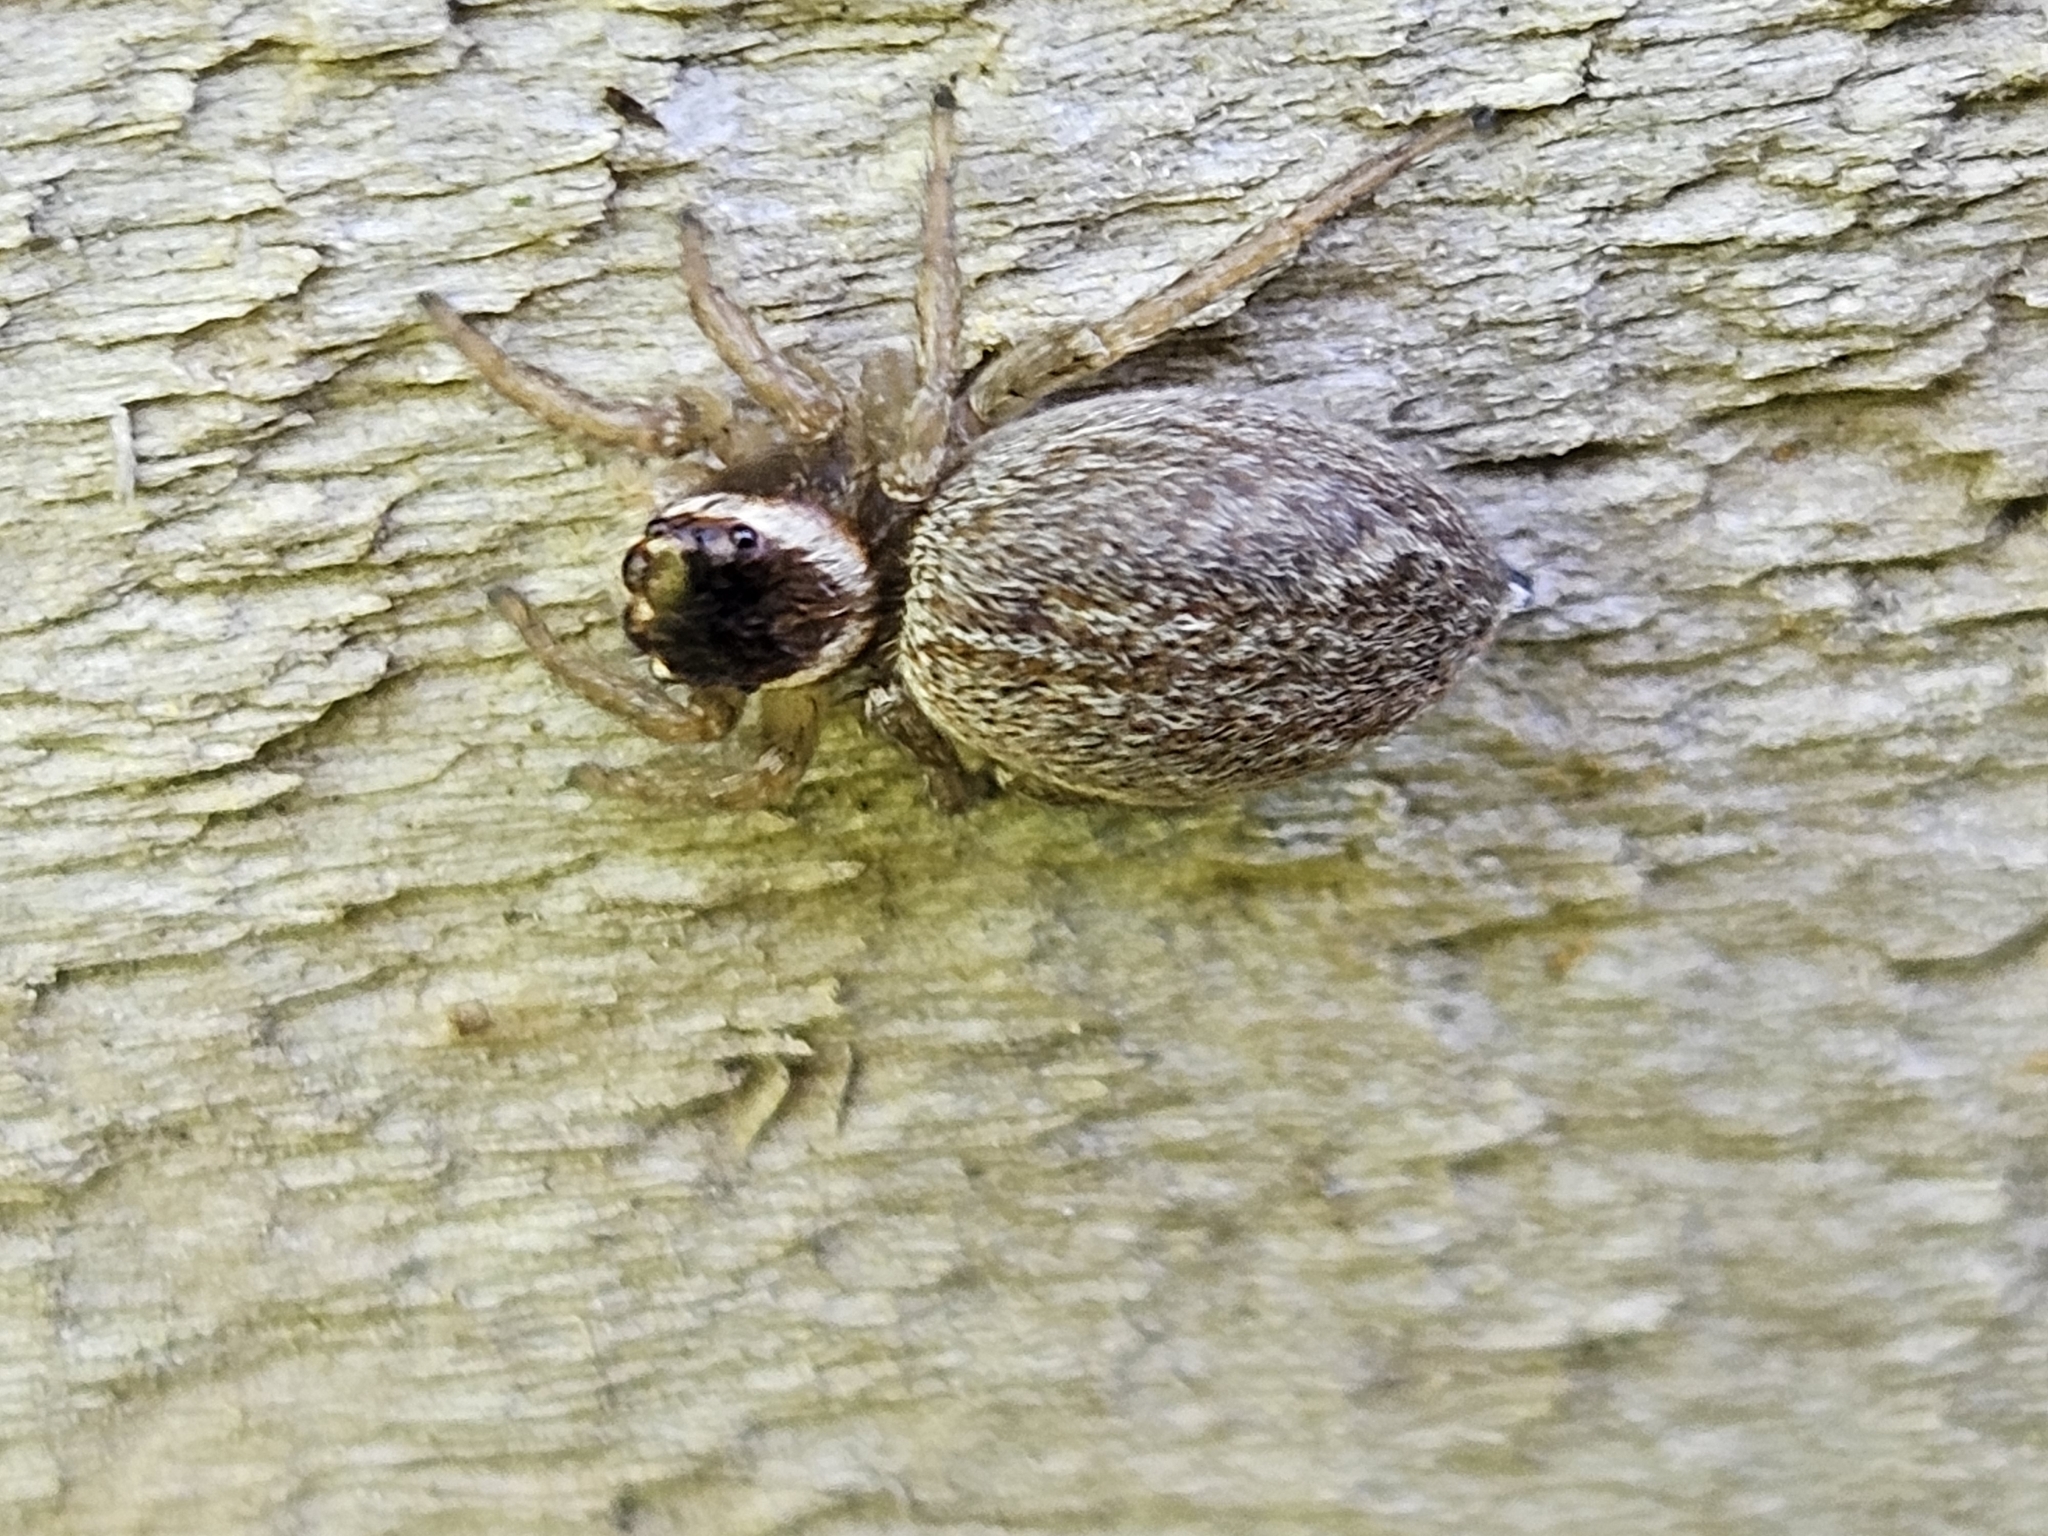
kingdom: Animalia
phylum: Arthropoda
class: Arachnida
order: Araneae
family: Salticidae
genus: Maratus
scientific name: Maratus griseus
